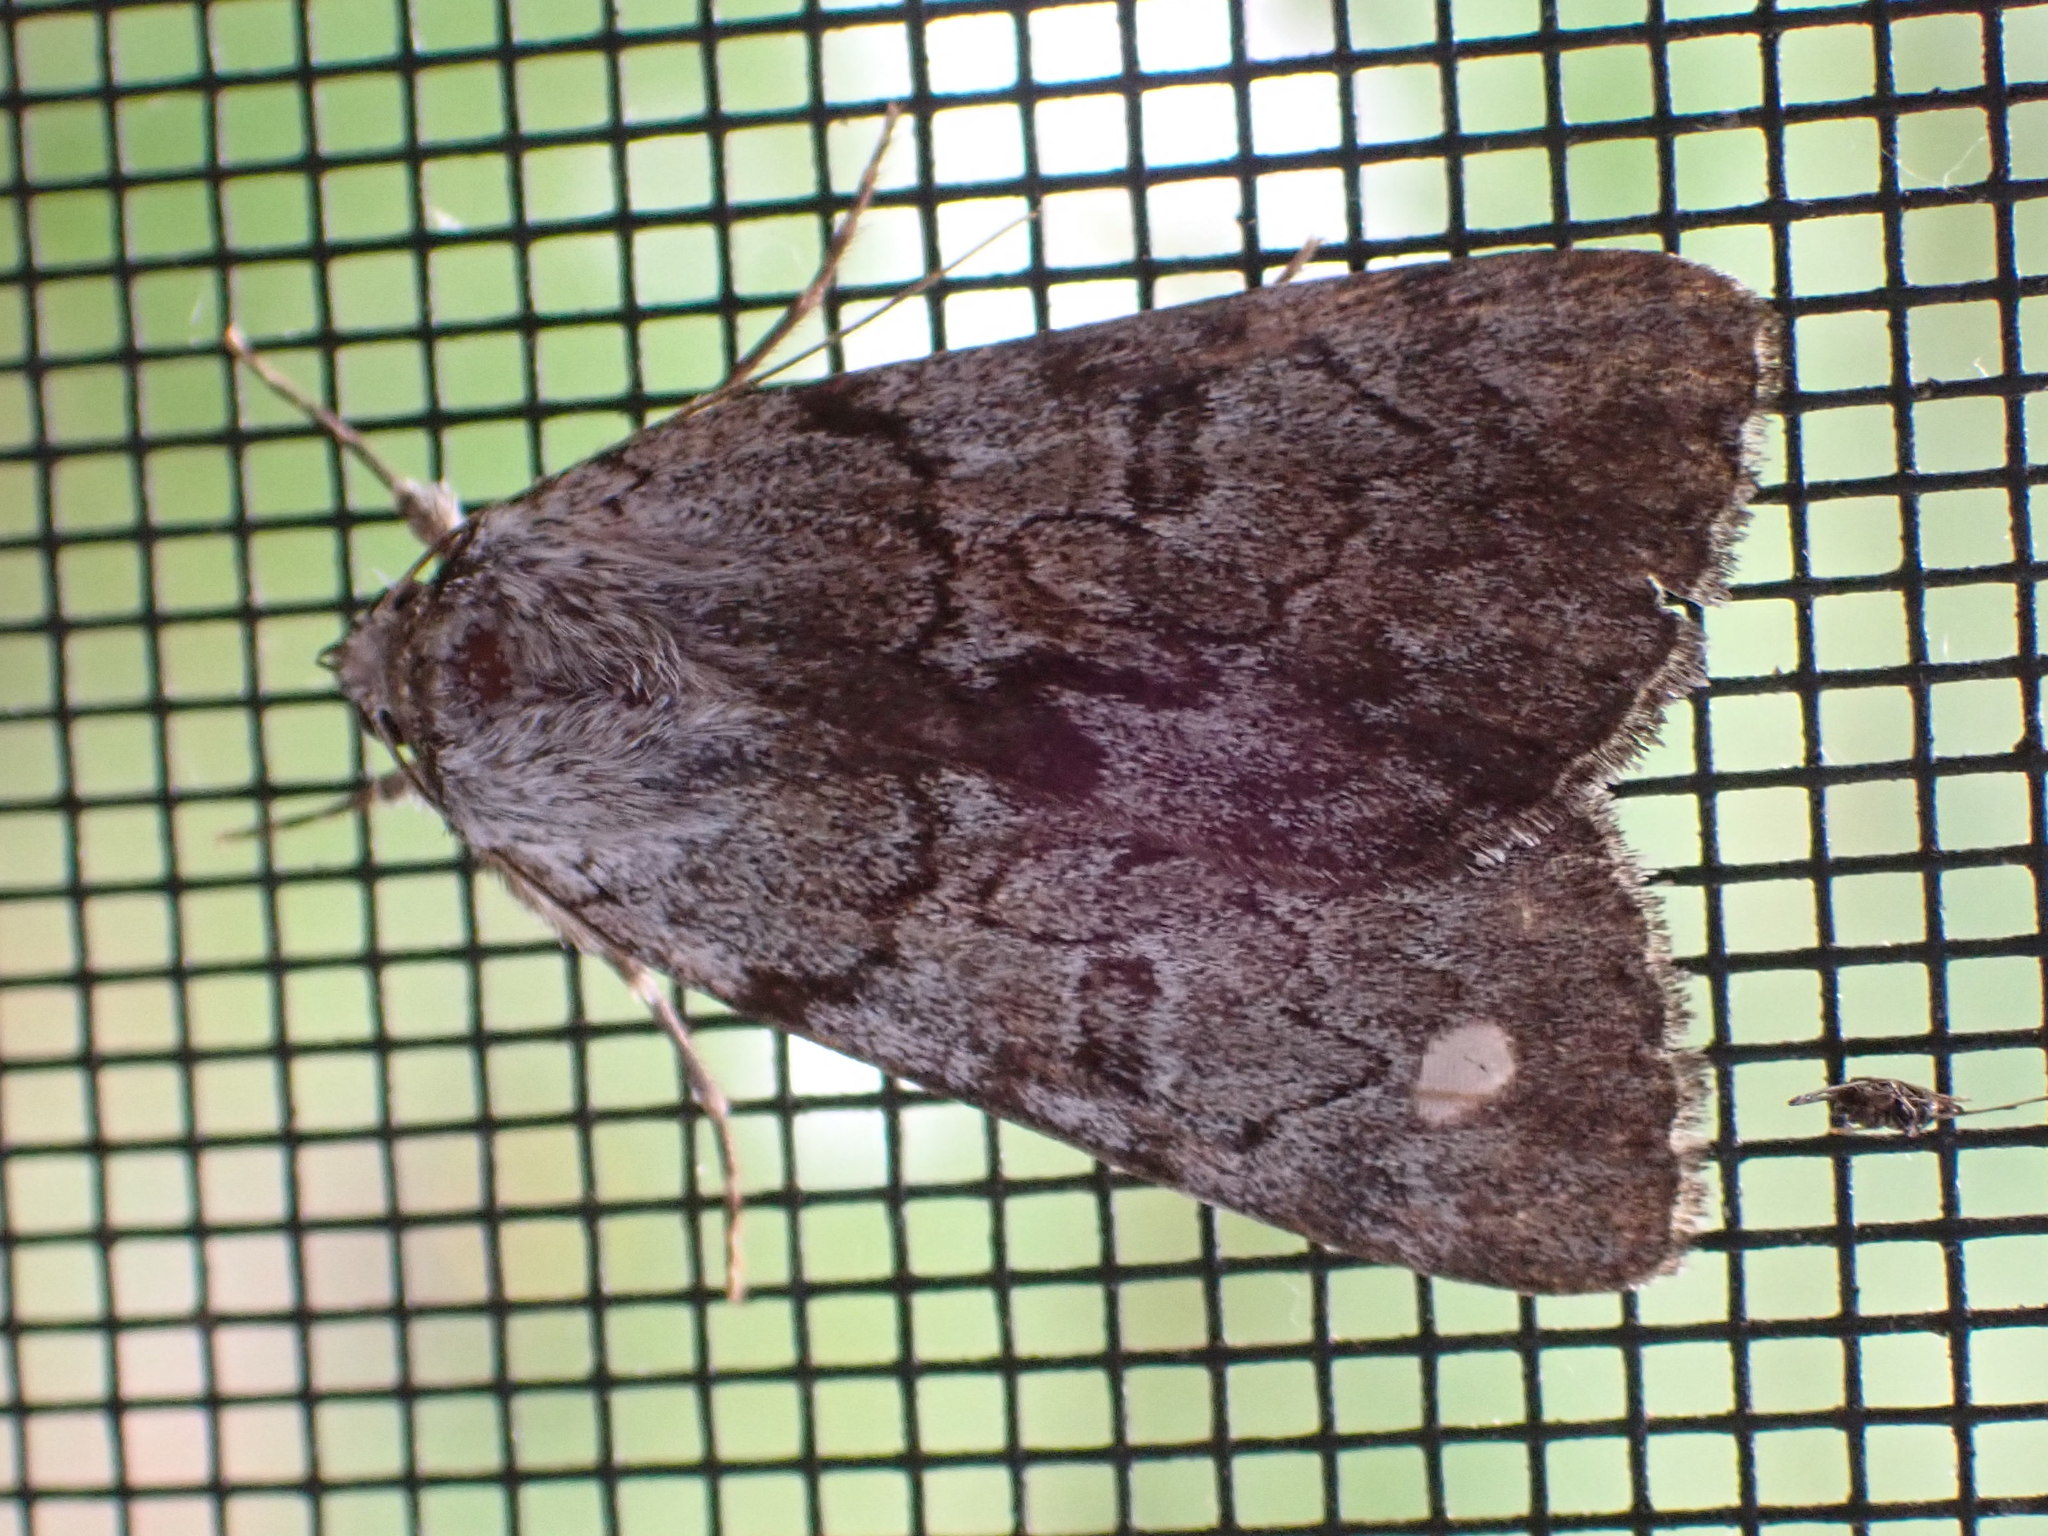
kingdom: Animalia
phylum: Arthropoda
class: Insecta
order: Lepidoptera
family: Erebidae
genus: Catocala
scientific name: Catocala sordida
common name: Sordid underwing
